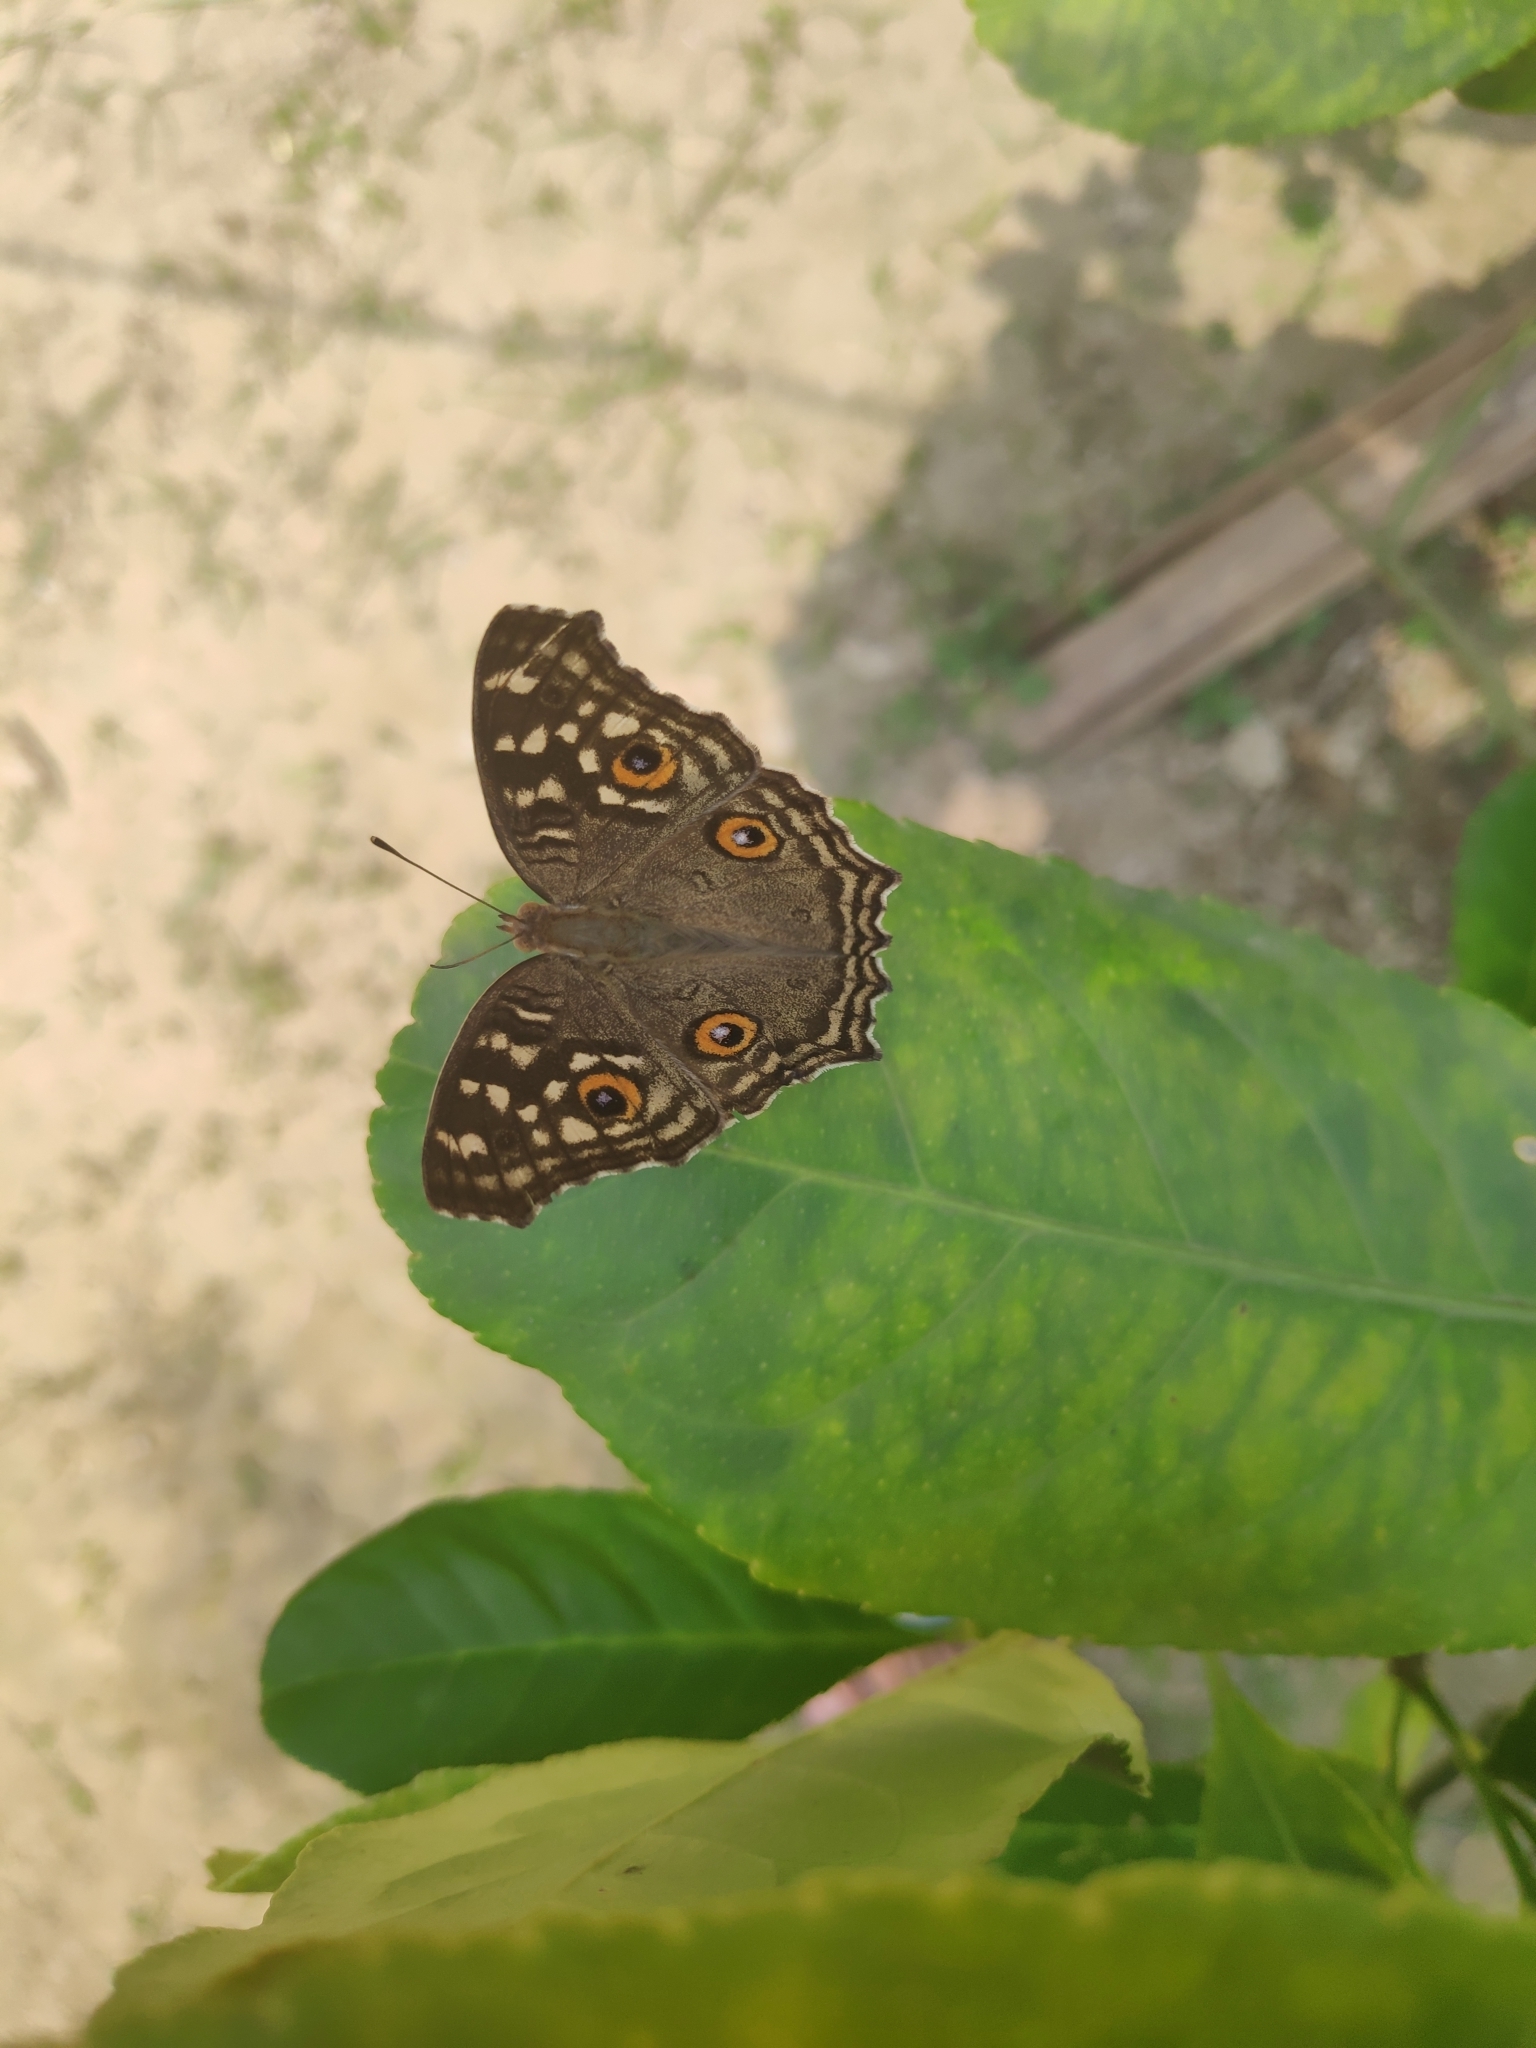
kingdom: Animalia
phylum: Arthropoda
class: Insecta
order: Lepidoptera
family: Nymphalidae
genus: Junonia
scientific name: Junonia lemonias
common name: Lemon pansy
